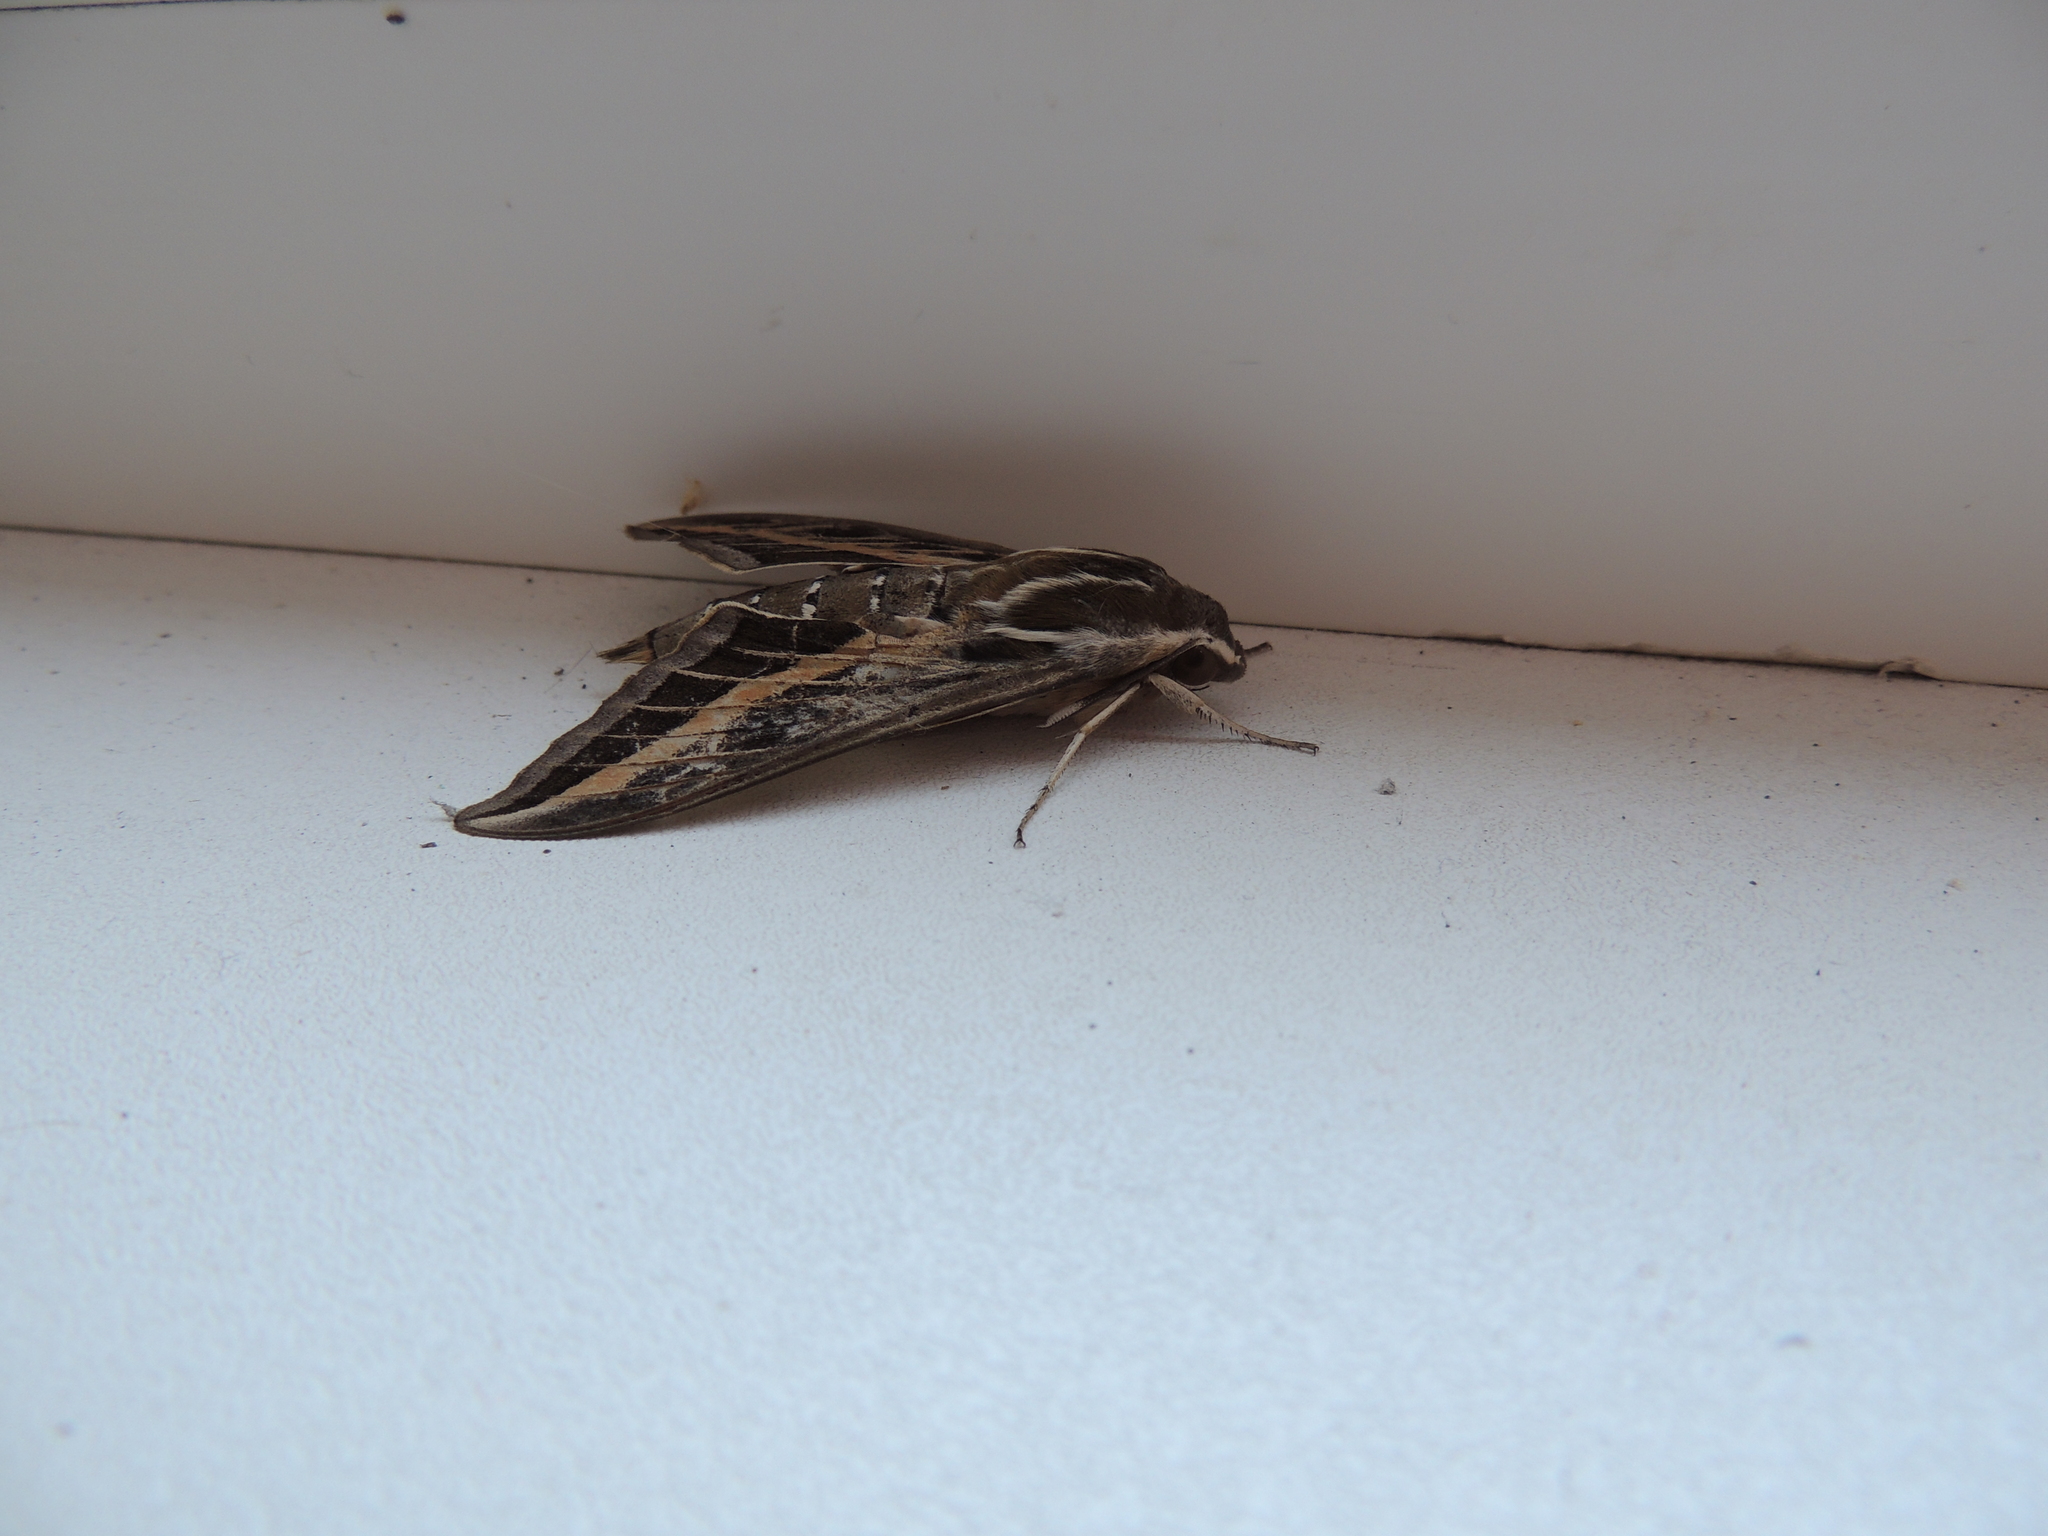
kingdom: Animalia
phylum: Arthropoda
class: Insecta
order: Lepidoptera
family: Sphingidae
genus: Hyles
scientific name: Hyles livornica
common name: Striped hawk-moth
